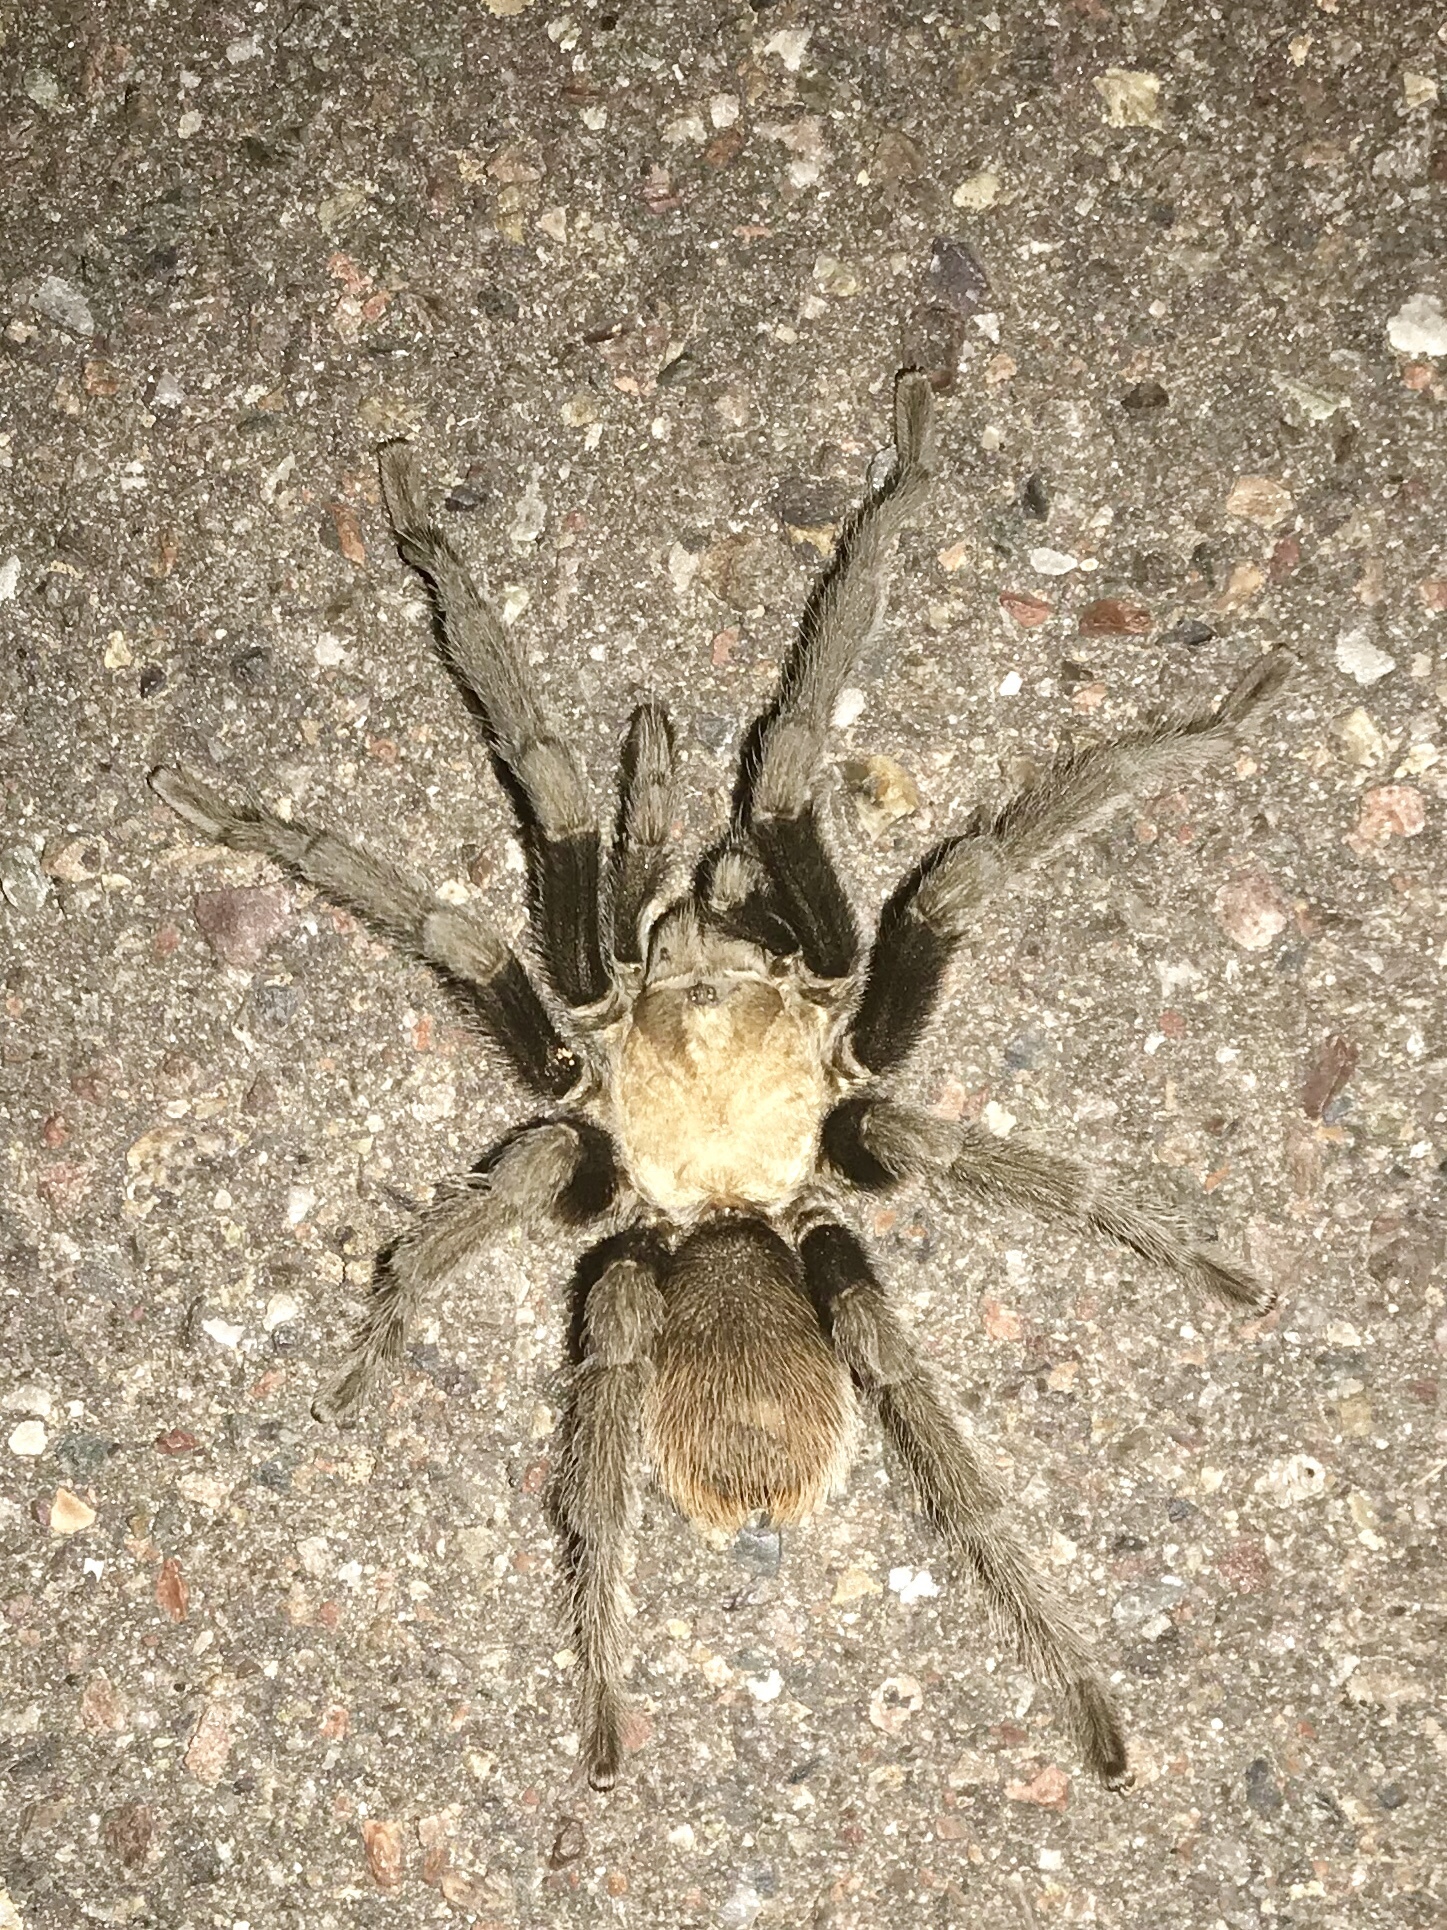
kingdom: Animalia
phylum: Arthropoda
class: Arachnida
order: Araneae
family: Theraphosidae
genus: Aphonopelma
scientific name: Aphonopelma chalcodes
